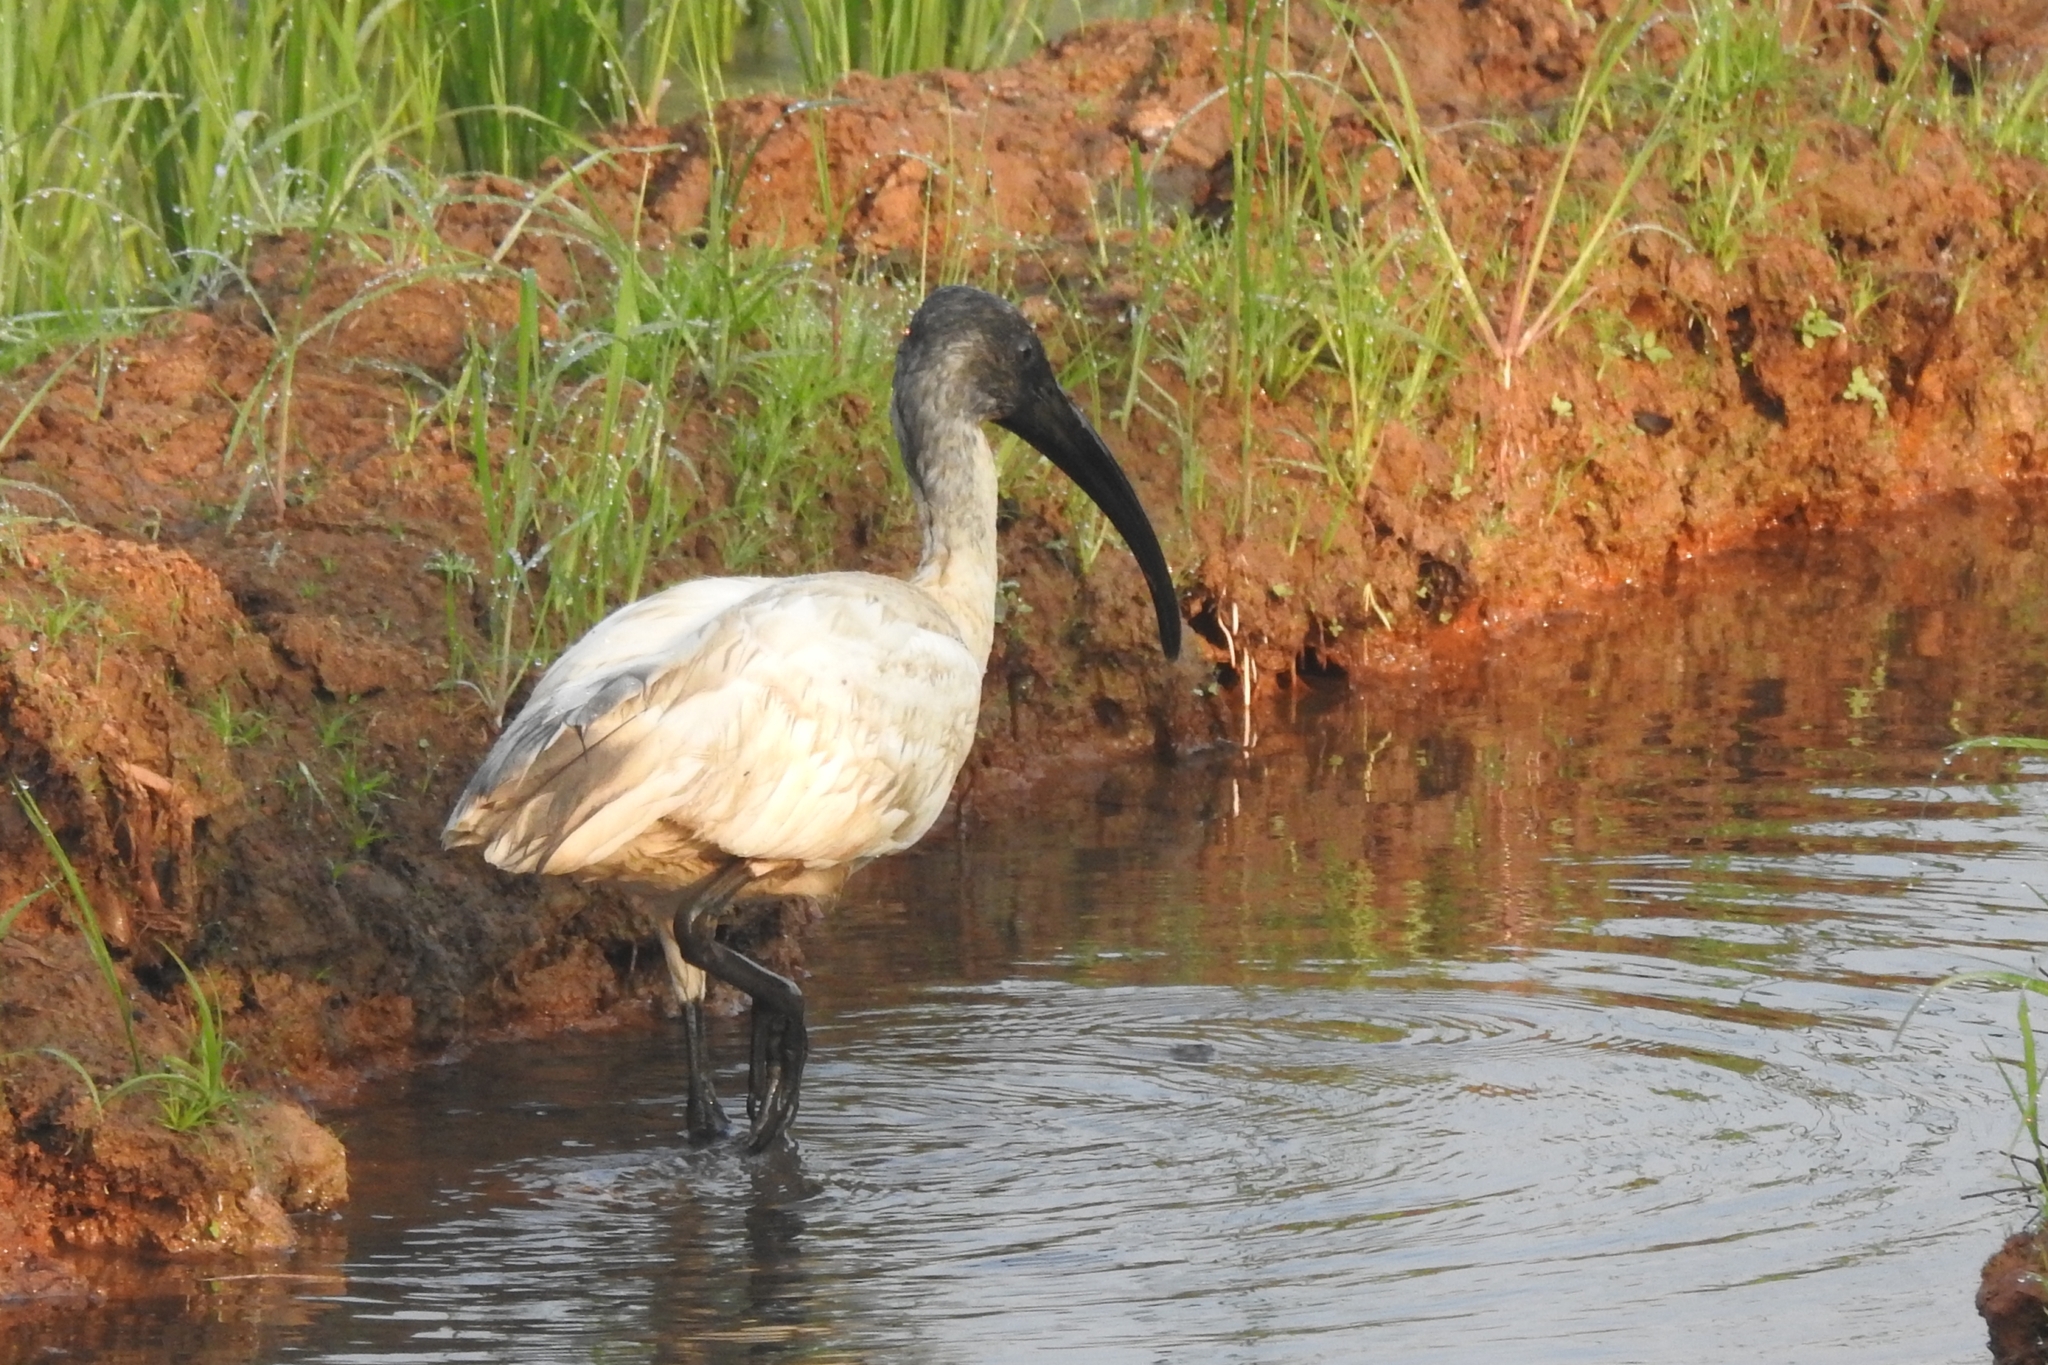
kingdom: Animalia
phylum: Chordata
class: Aves
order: Pelecaniformes
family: Threskiornithidae
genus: Threskiornis
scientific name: Threskiornis melanocephalus
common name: Black-headed ibis
